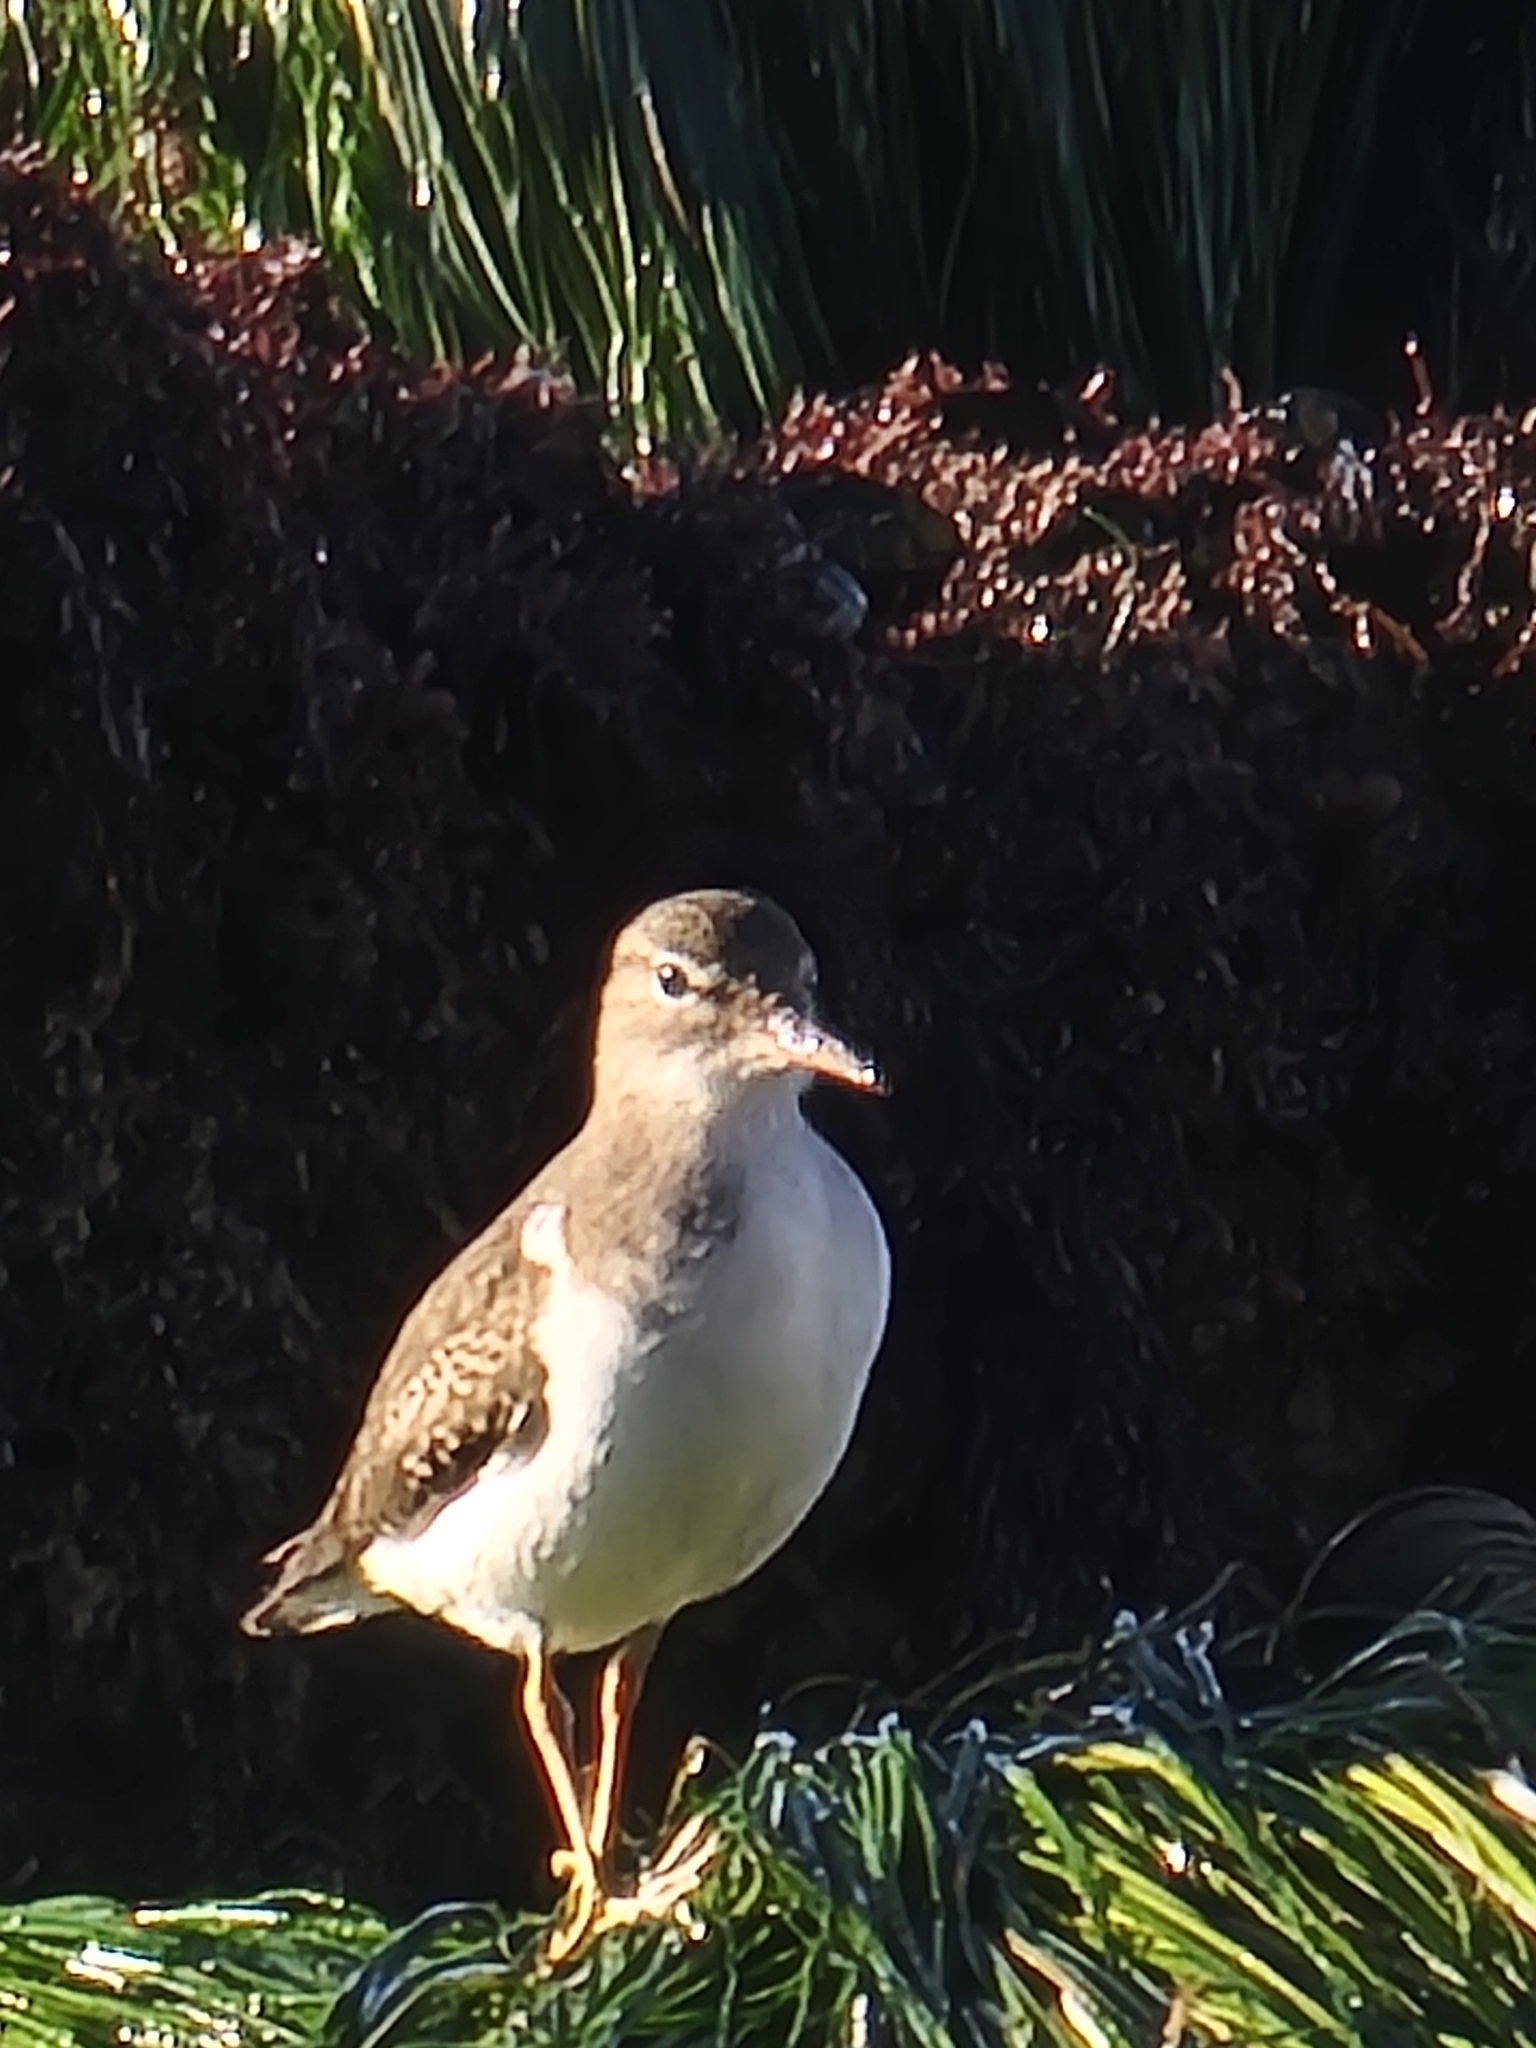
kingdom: Animalia
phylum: Chordata
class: Aves
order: Charadriiformes
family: Scolopacidae
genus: Actitis
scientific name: Actitis macularius
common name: Spotted sandpiper
